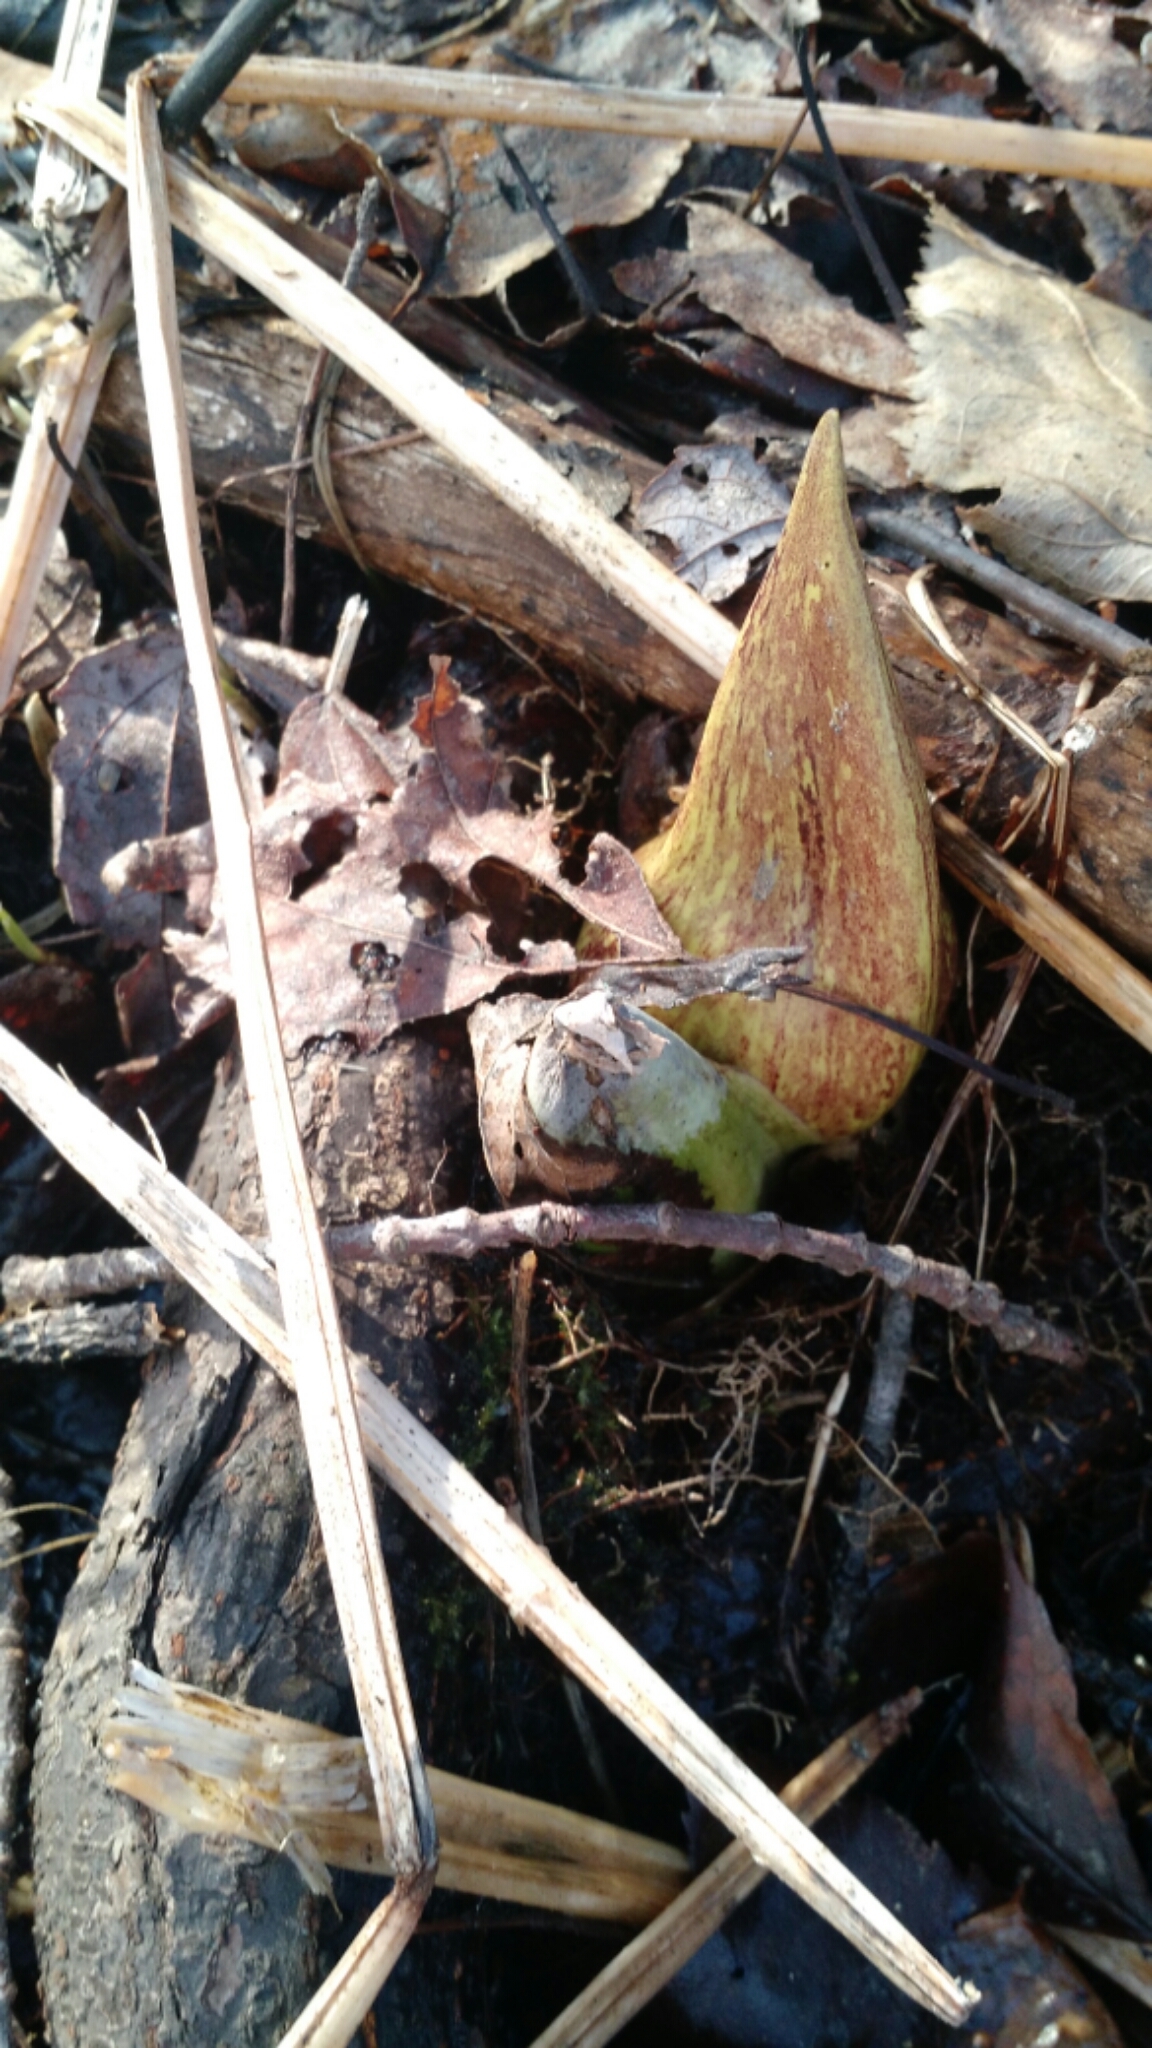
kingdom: Plantae
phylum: Tracheophyta
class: Liliopsida
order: Alismatales
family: Araceae
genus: Symplocarpus
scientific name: Symplocarpus foetidus
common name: Eastern skunk cabbage
